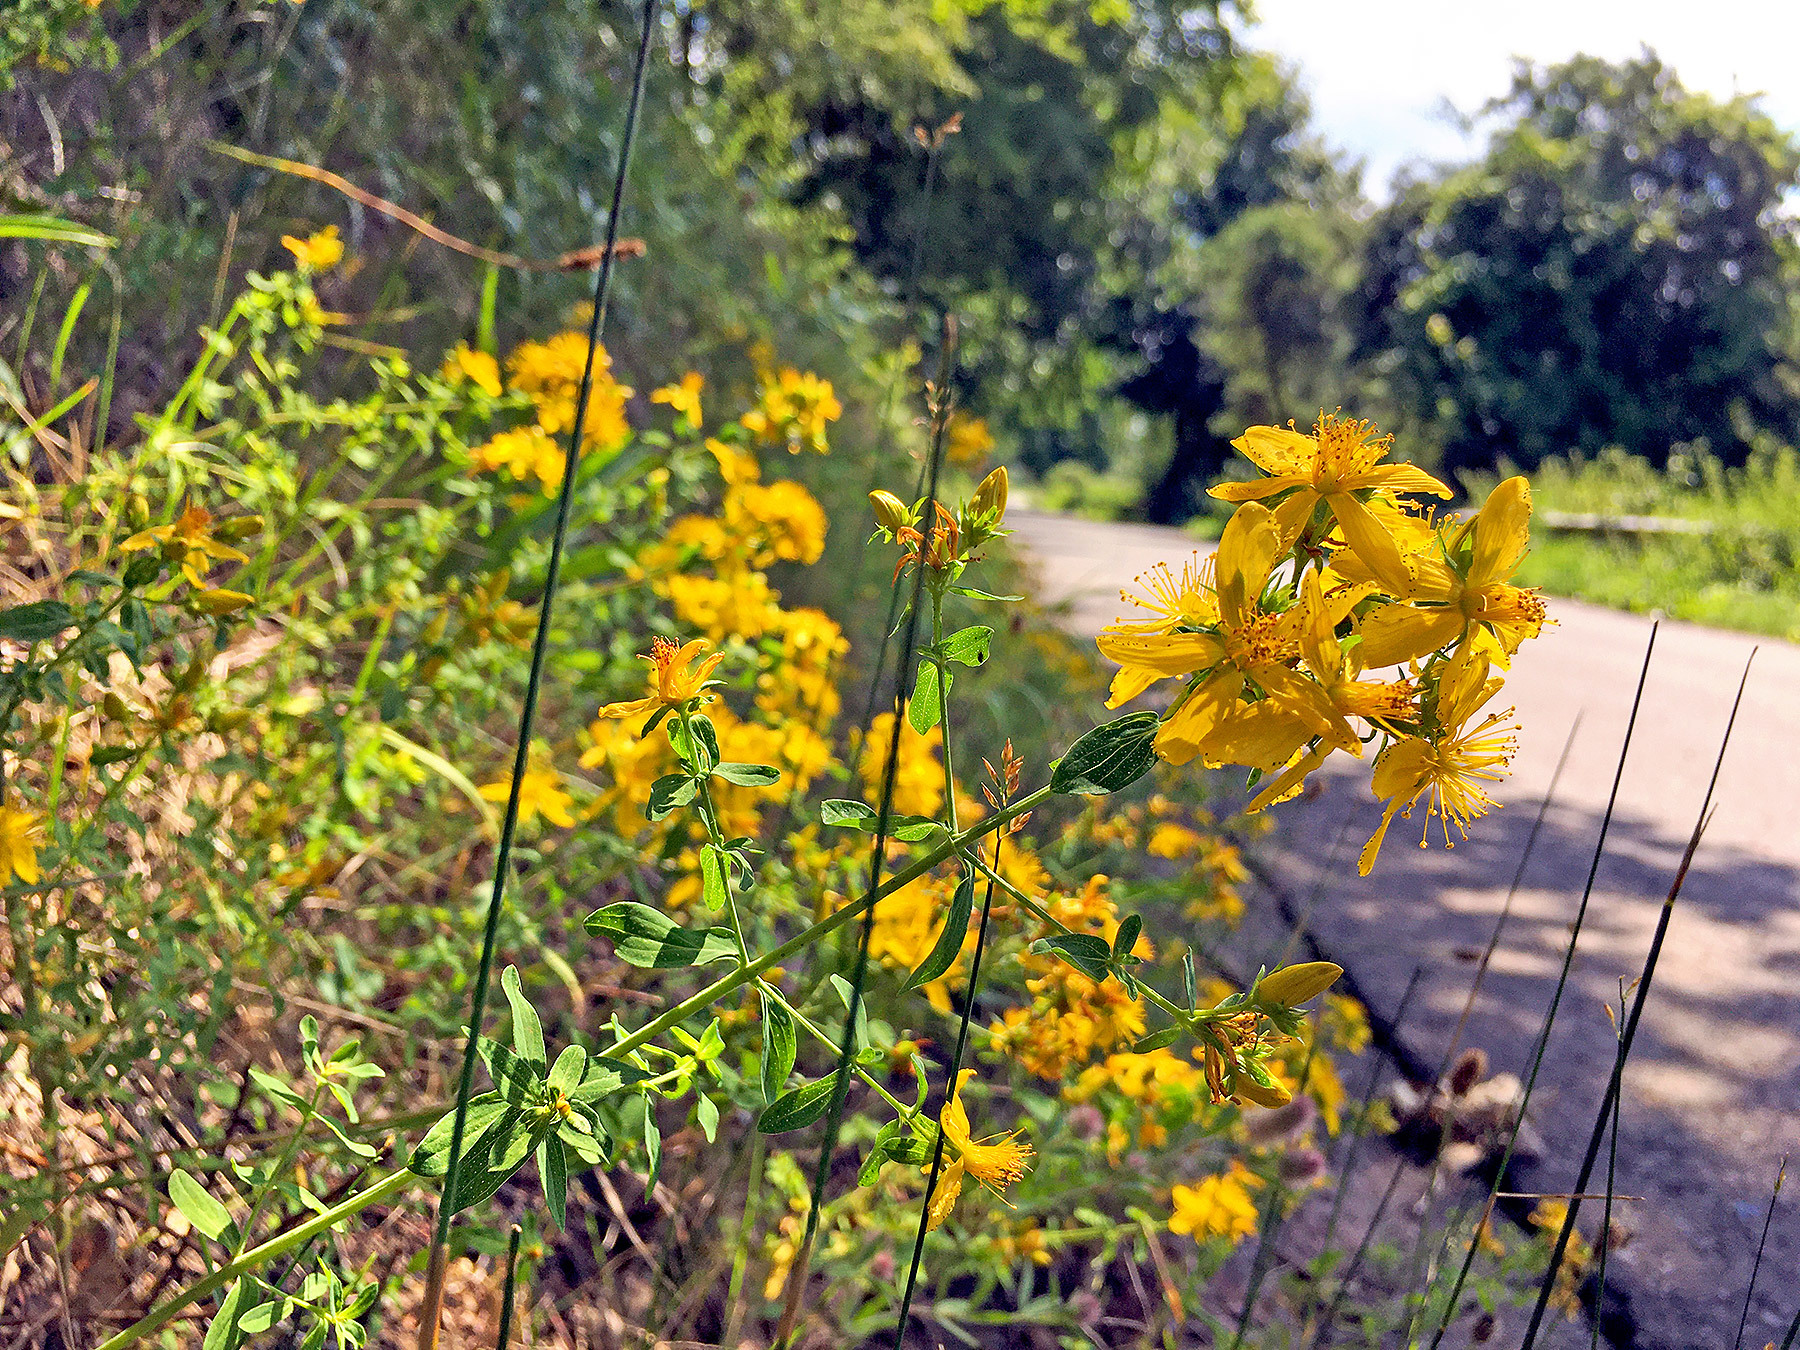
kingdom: Plantae
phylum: Tracheophyta
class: Magnoliopsida
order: Malpighiales
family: Hypericaceae
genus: Hypericum
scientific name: Hypericum perforatum
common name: Common st. johnswort
